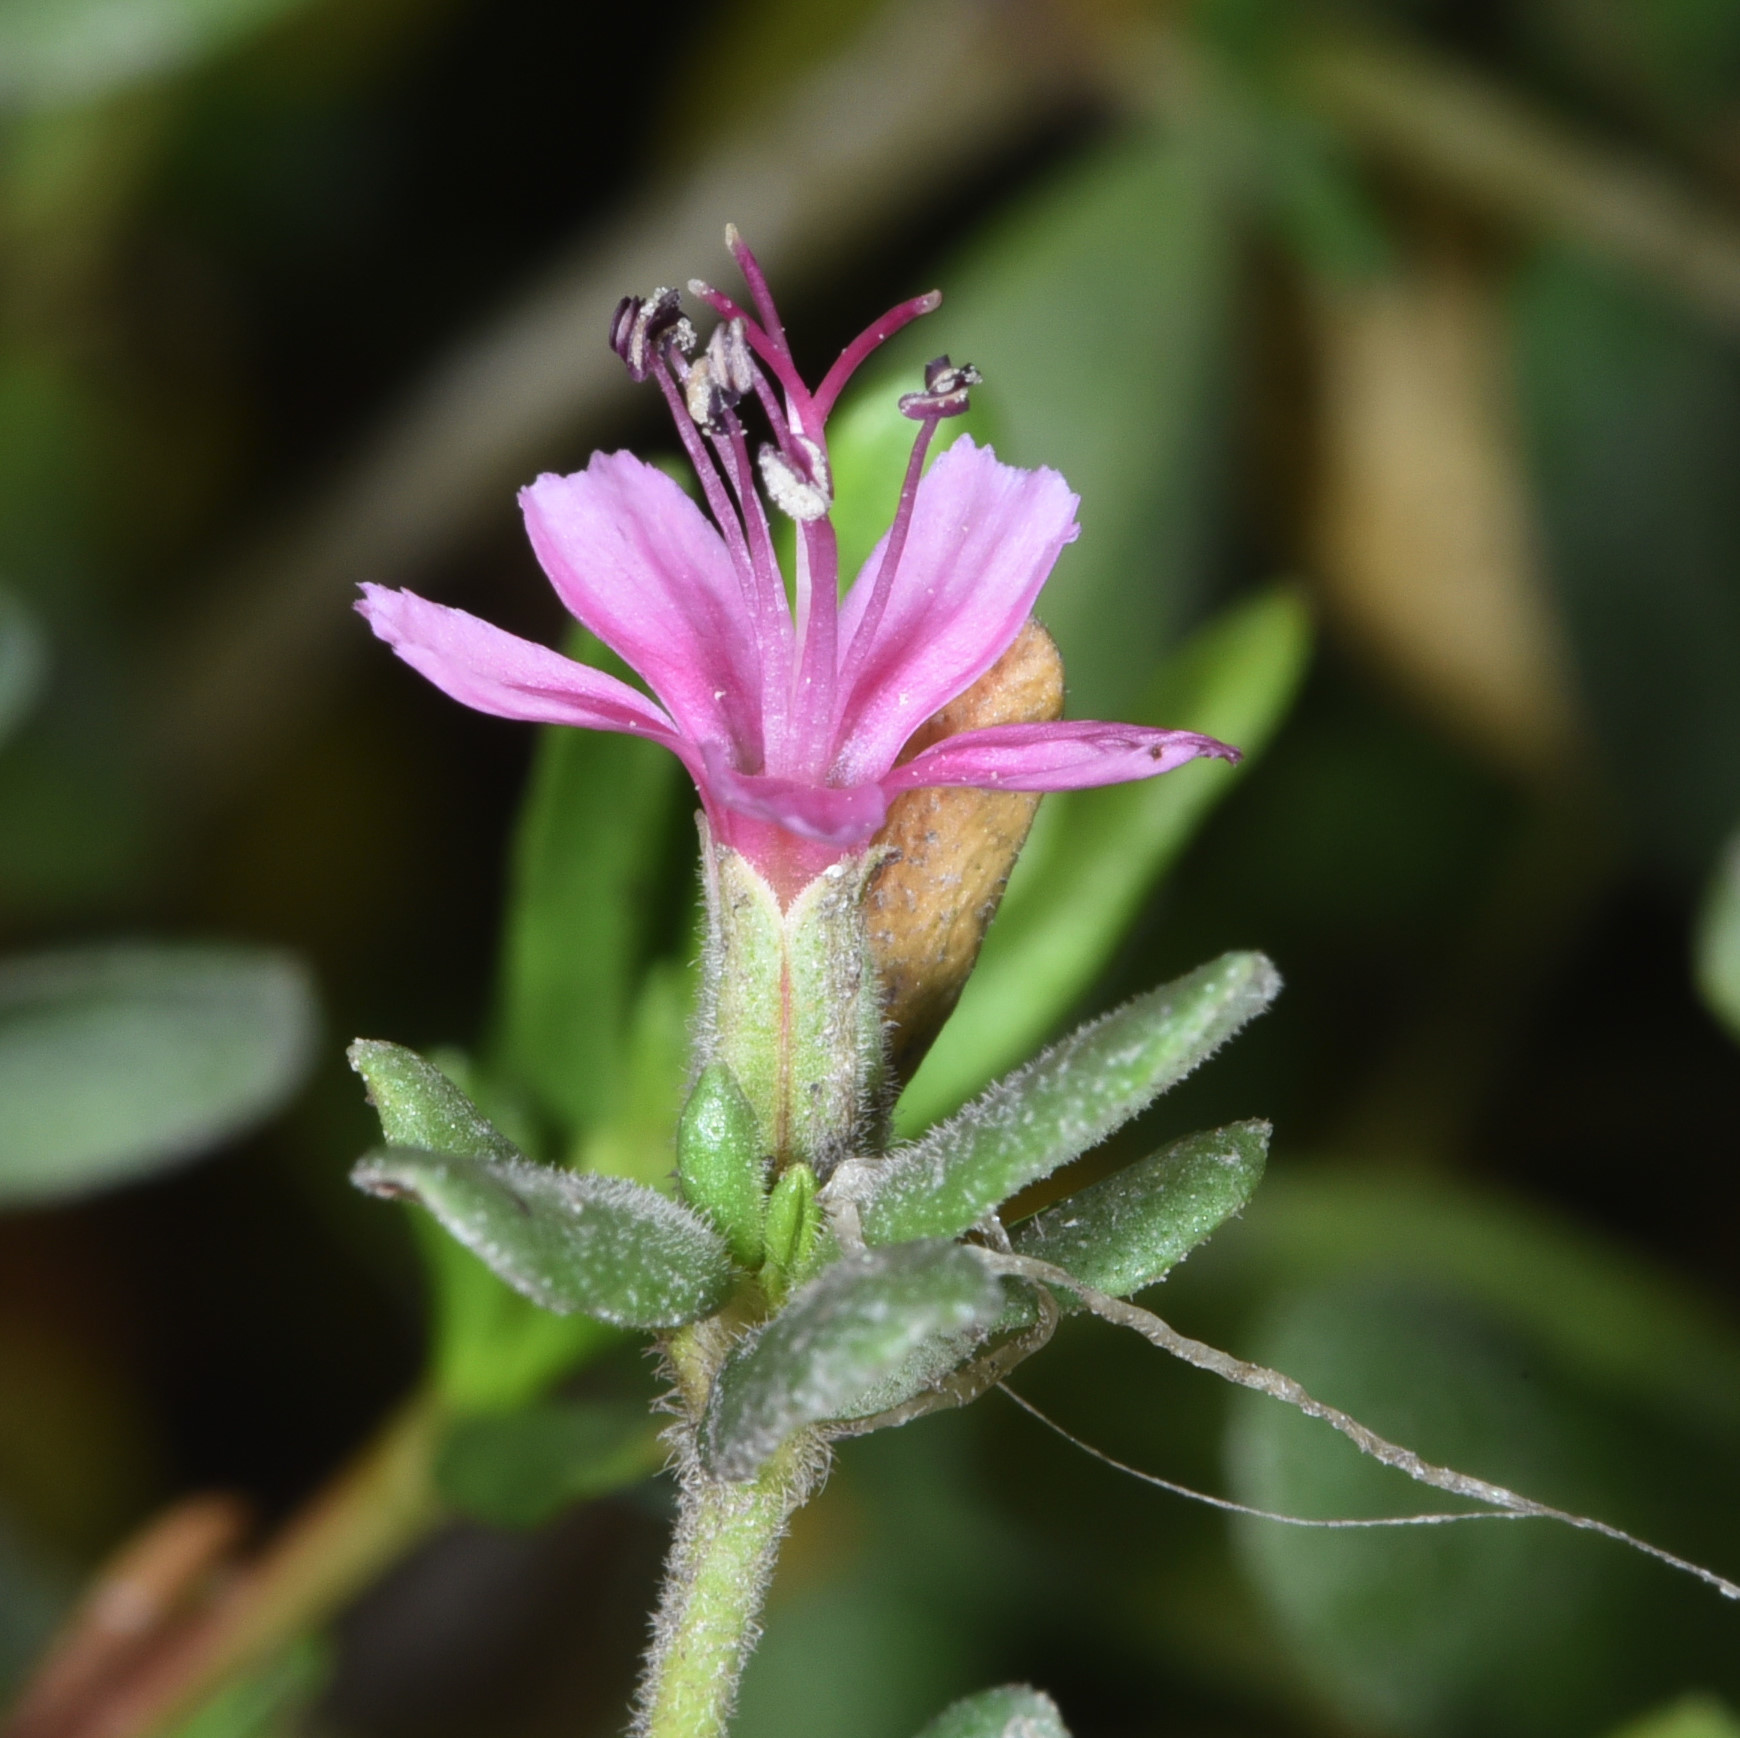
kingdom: Plantae
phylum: Tracheophyta
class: Magnoliopsida
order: Caryophyllales
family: Frankeniaceae
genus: Frankenia
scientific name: Frankenia salina
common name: Alkali seaheath
